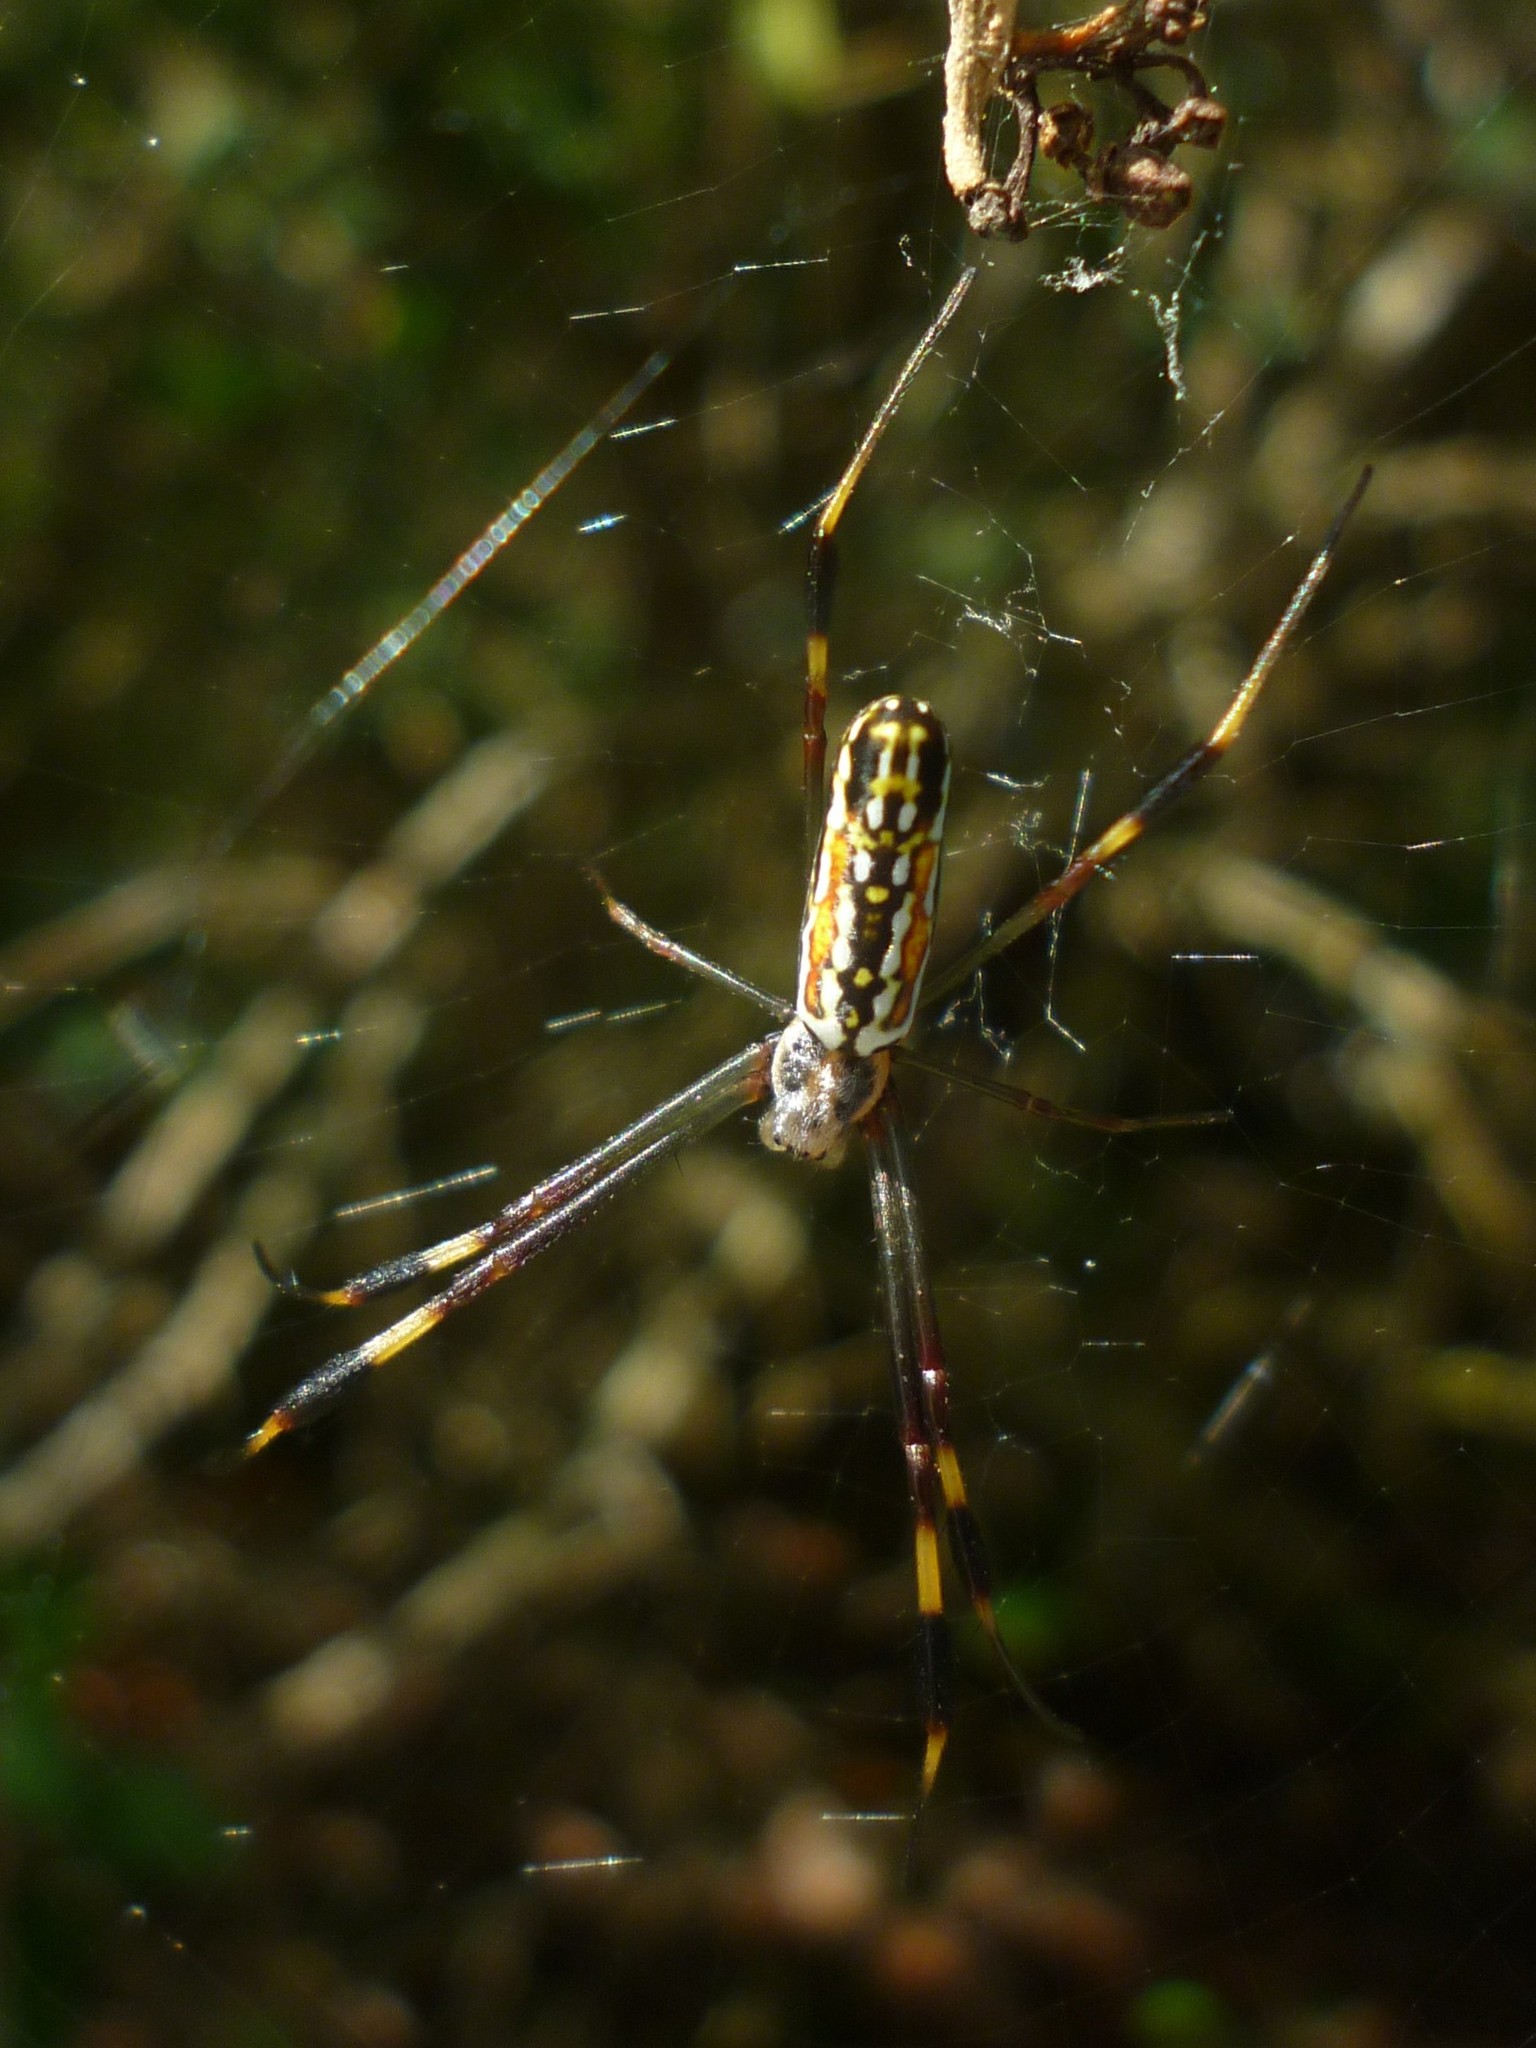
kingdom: Animalia
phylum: Arthropoda
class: Arachnida
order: Araneae
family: Araneidae
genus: Trichonephila
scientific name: Trichonephila clavipes
